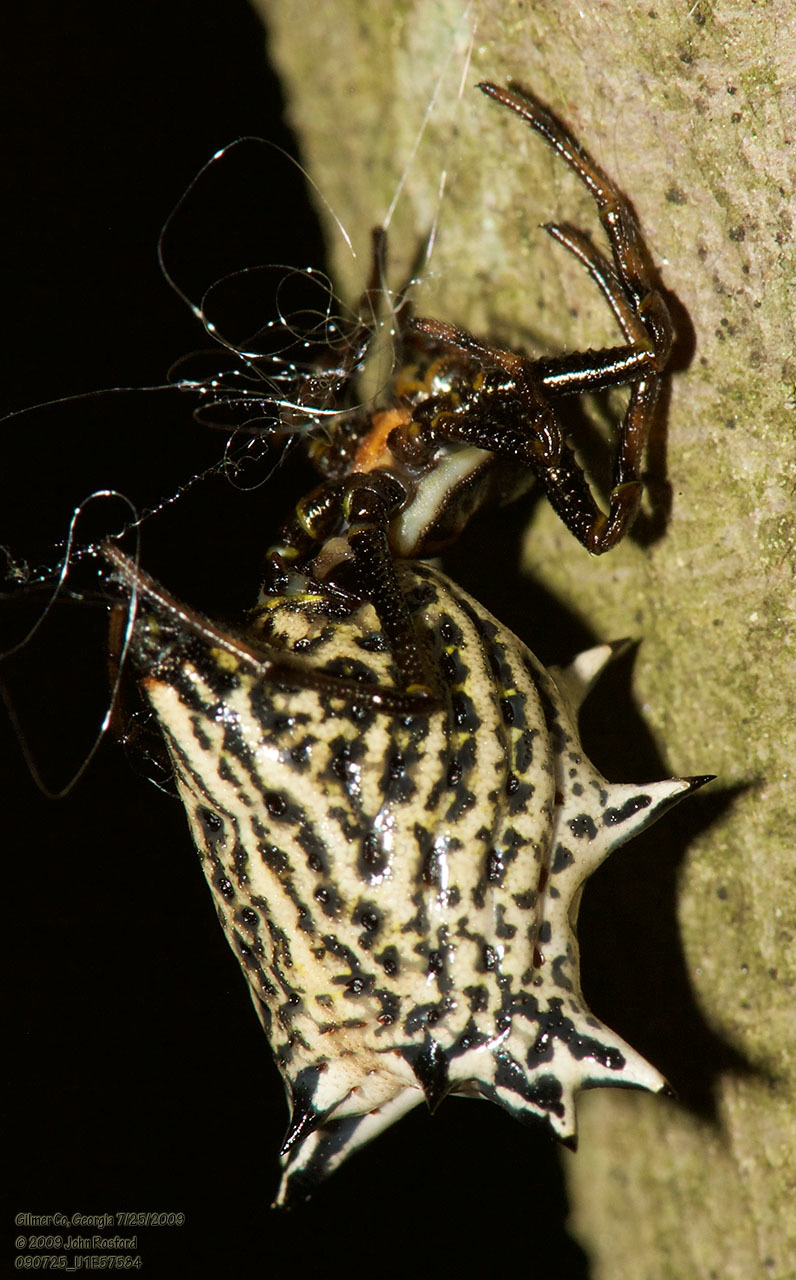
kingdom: Animalia
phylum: Arthropoda
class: Arachnida
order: Araneae
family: Araneidae
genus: Micrathena
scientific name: Micrathena gracilis
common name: Orb weavers
